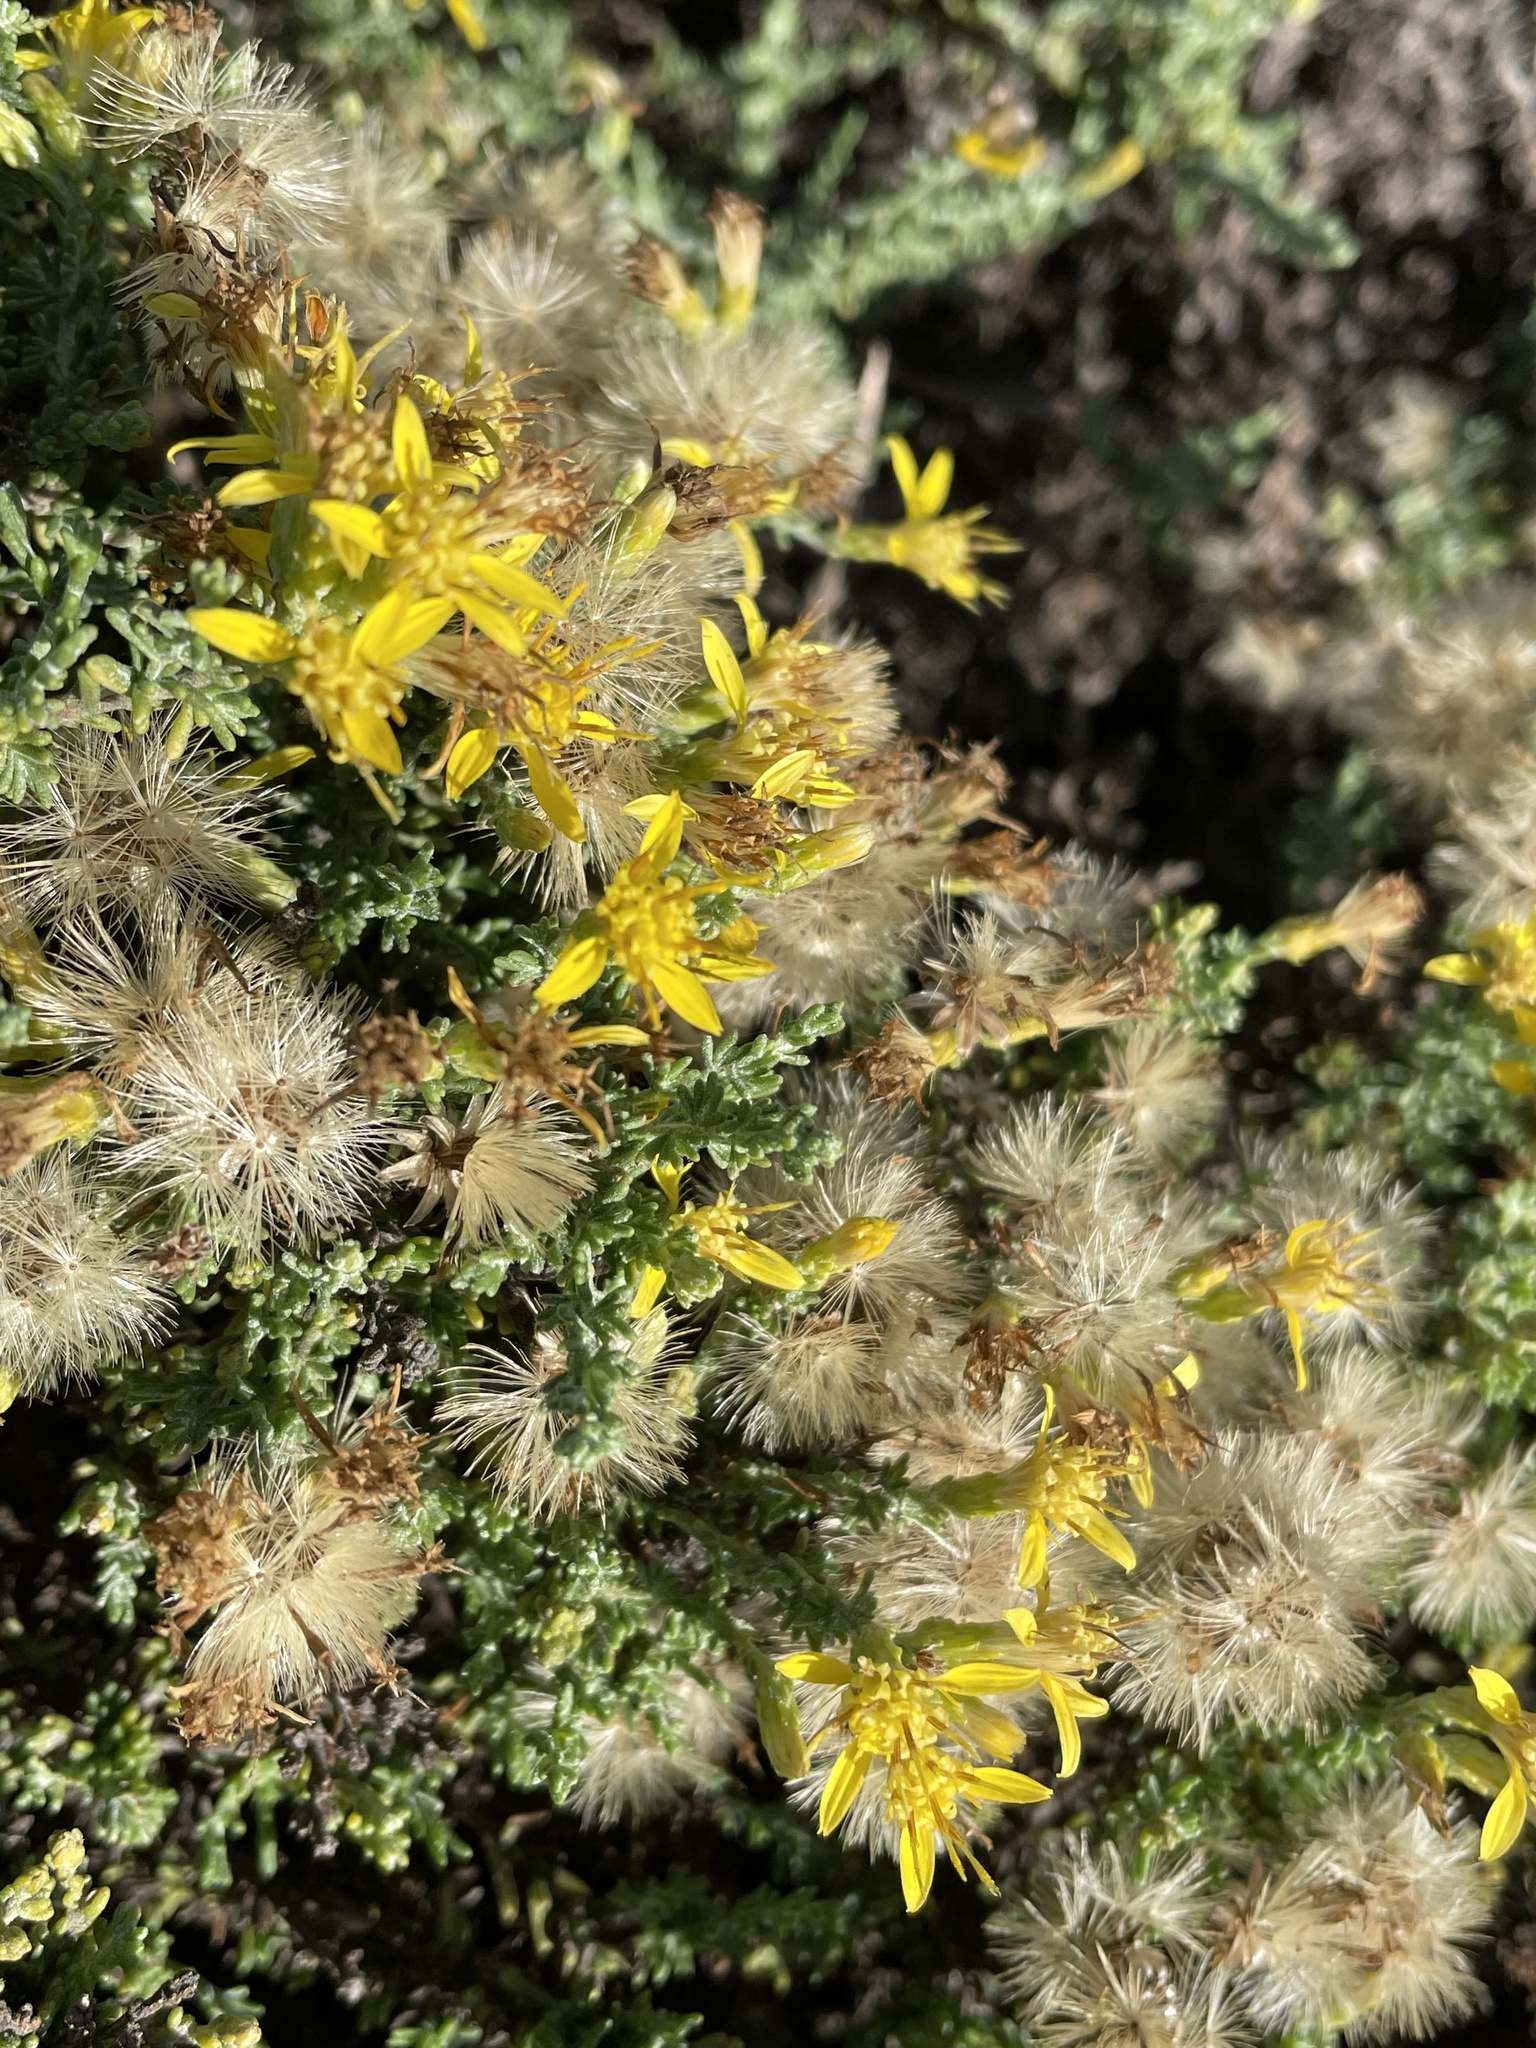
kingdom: Plantae
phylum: Tracheophyta
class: Magnoliopsida
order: Asterales
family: Asteraceae
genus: Ericameria
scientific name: Ericameria ericoides
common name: California goldenbush
